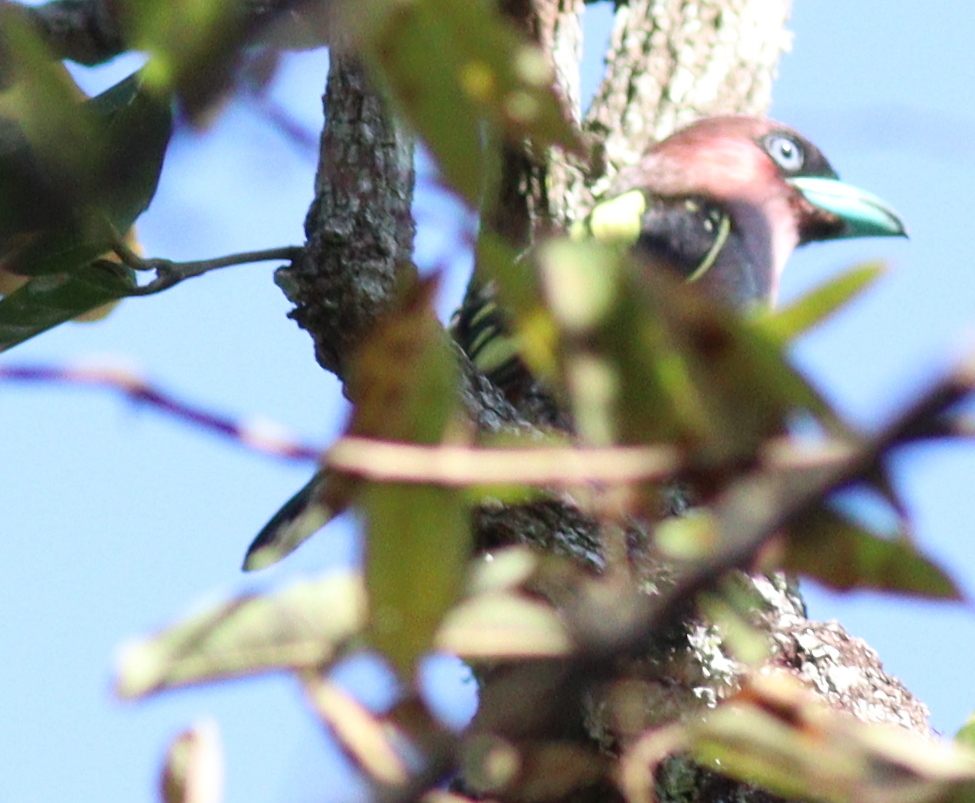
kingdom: Animalia
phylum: Chordata
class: Aves
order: Passeriformes
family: Eurylaimidae
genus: Eurylaimus
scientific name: Eurylaimus javanicus
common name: Banded broadbill
